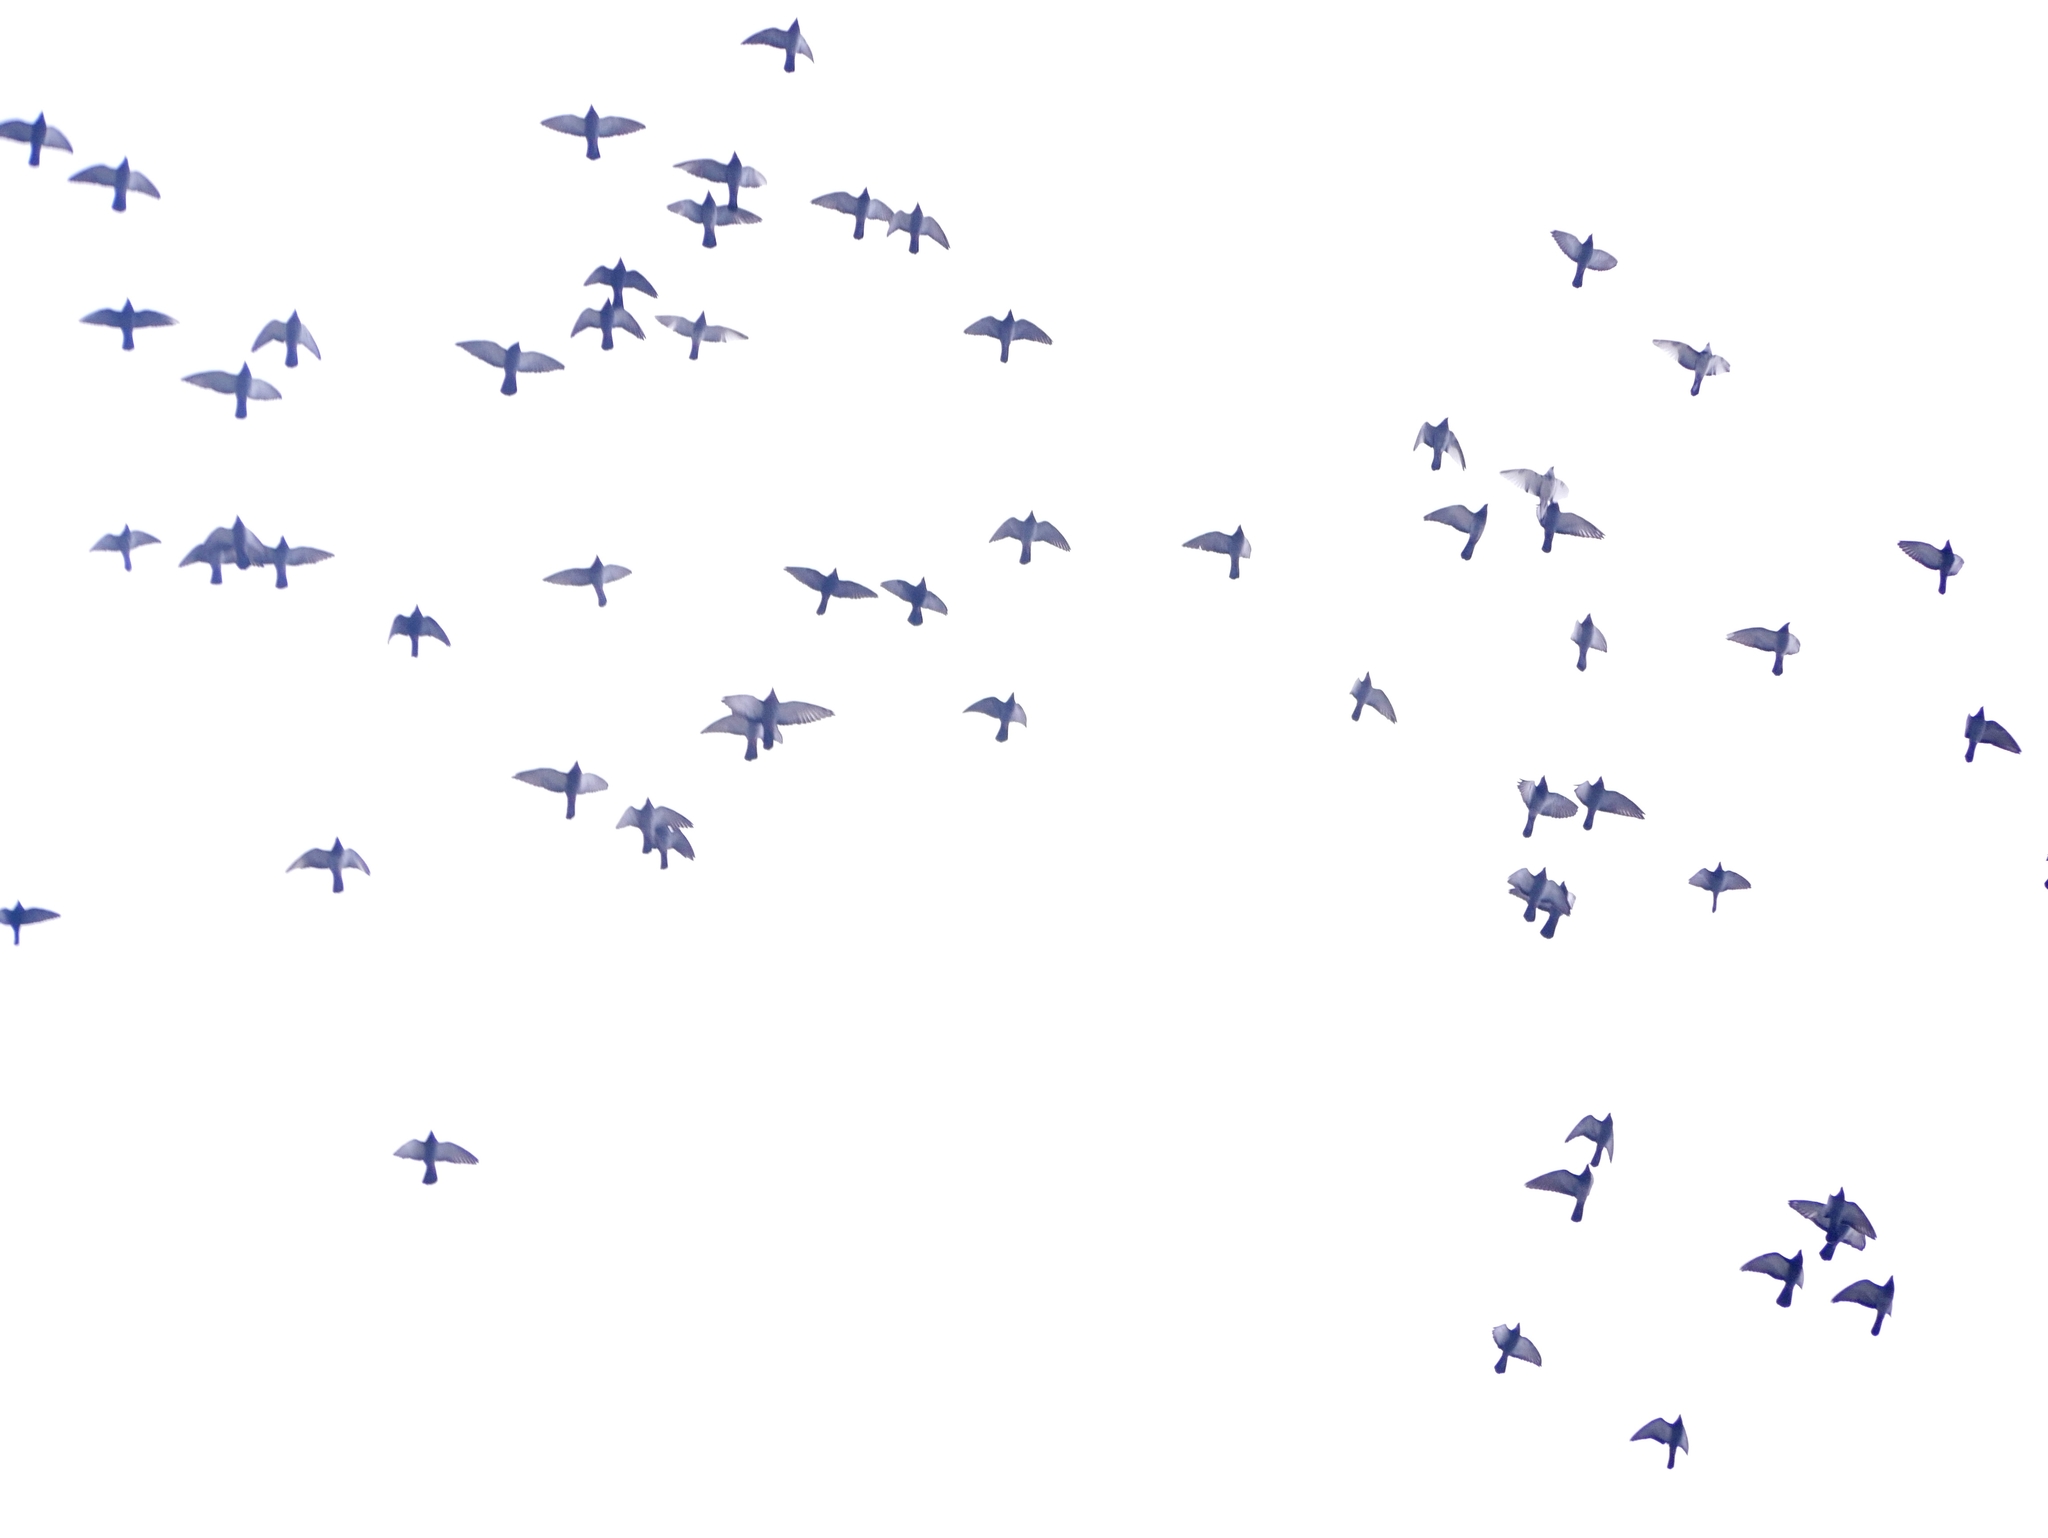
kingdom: Animalia
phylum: Chordata
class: Aves
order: Columbiformes
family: Columbidae
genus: Columba
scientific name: Columba livia
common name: Rock pigeon
